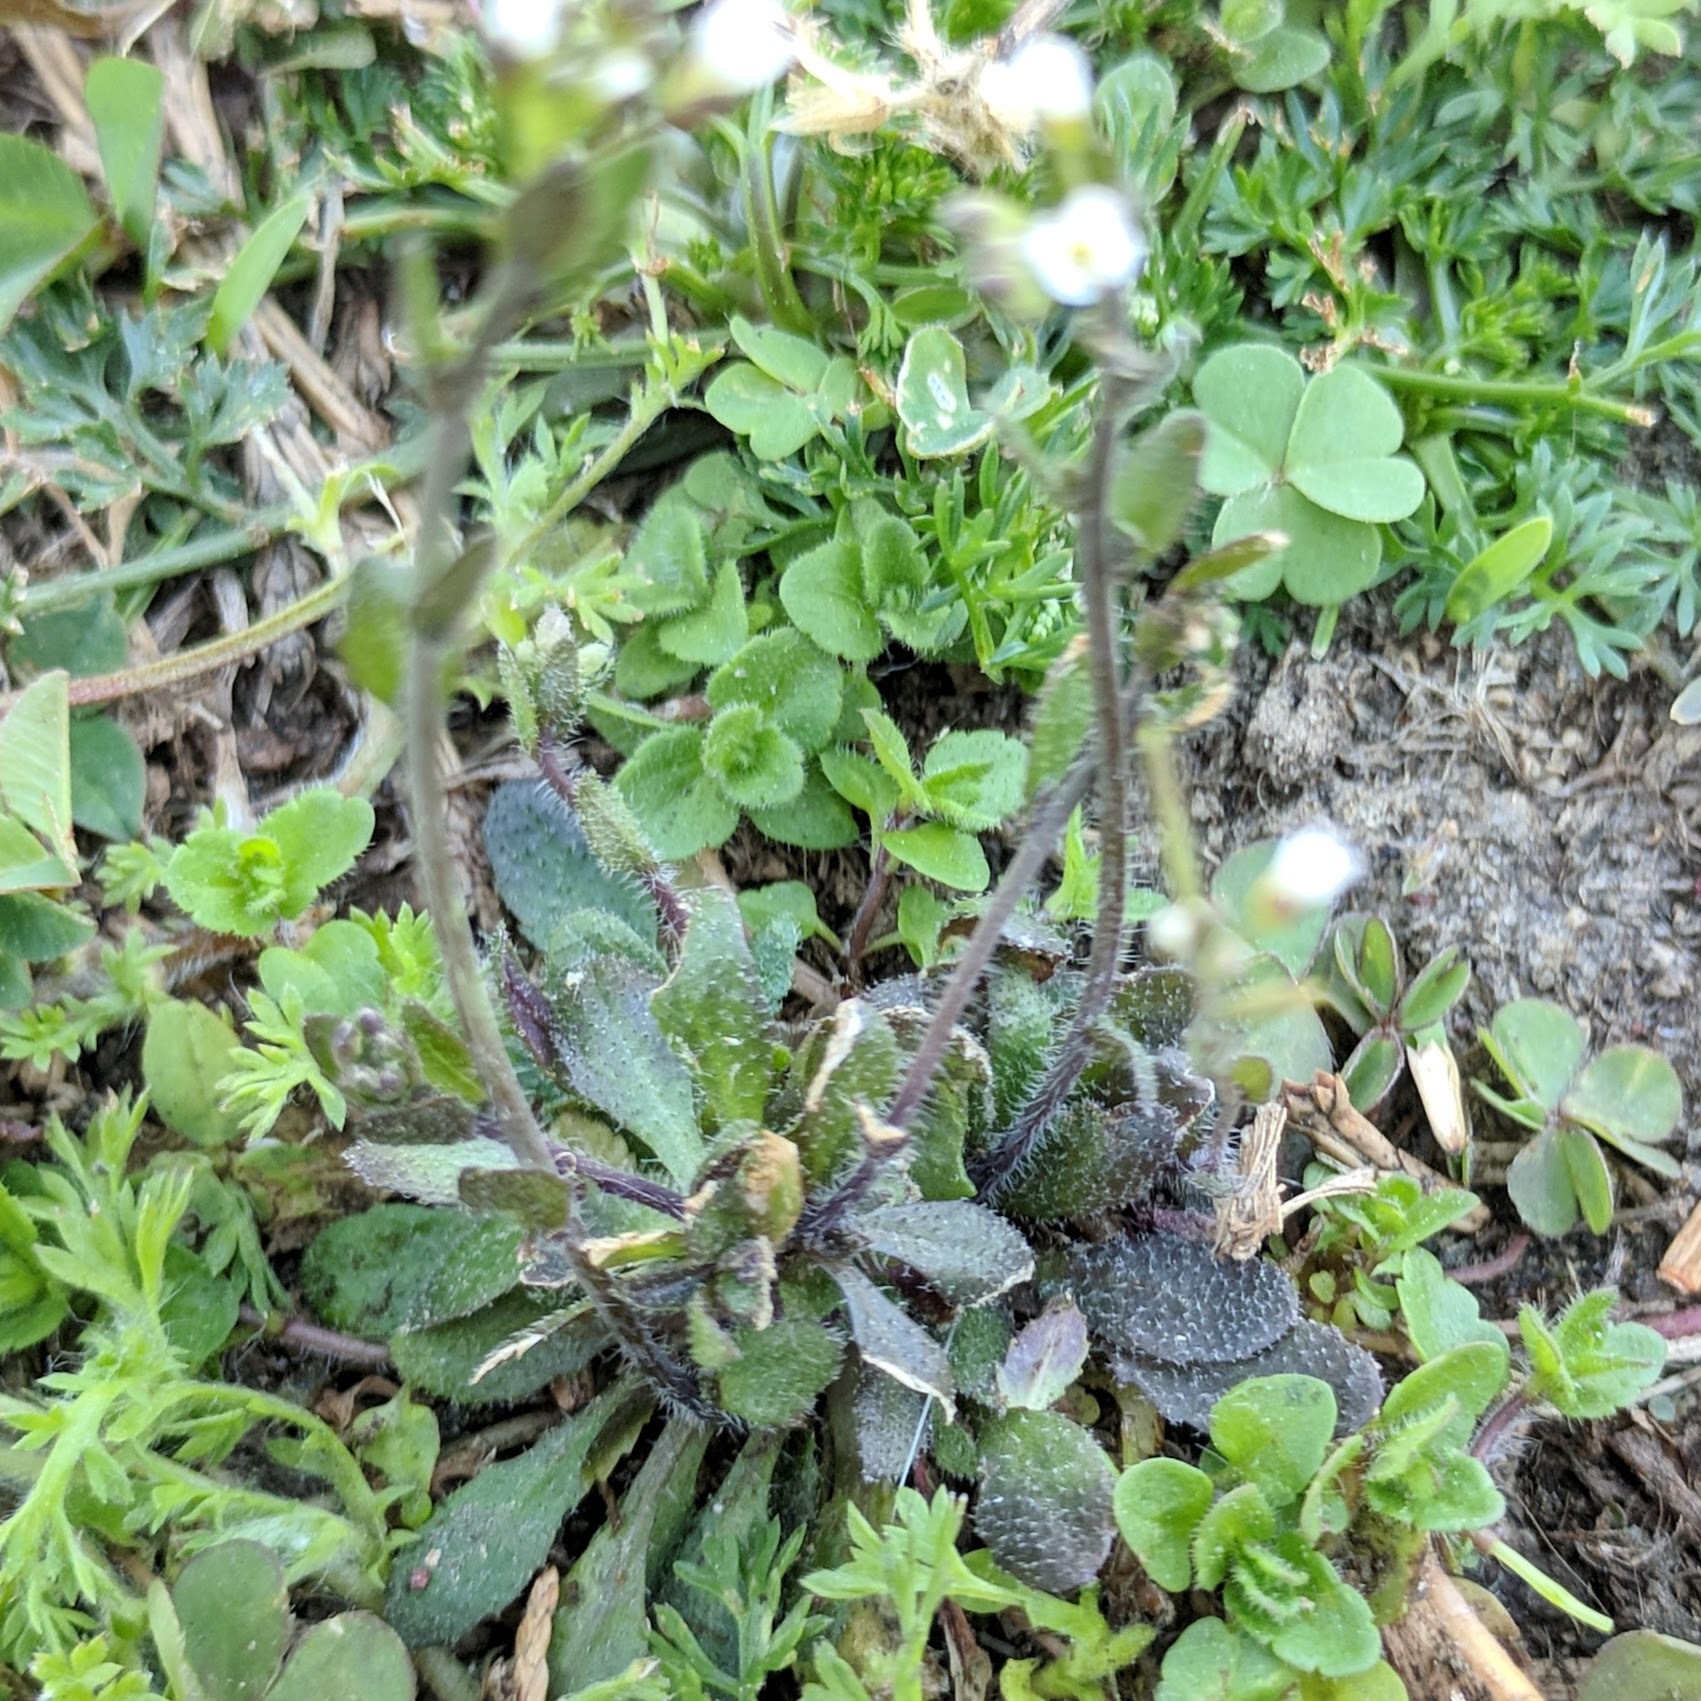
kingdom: Plantae
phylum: Tracheophyta
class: Magnoliopsida
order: Brassicales
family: Brassicaceae
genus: Arabidopsis
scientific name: Arabidopsis thaliana
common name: Thale cress
